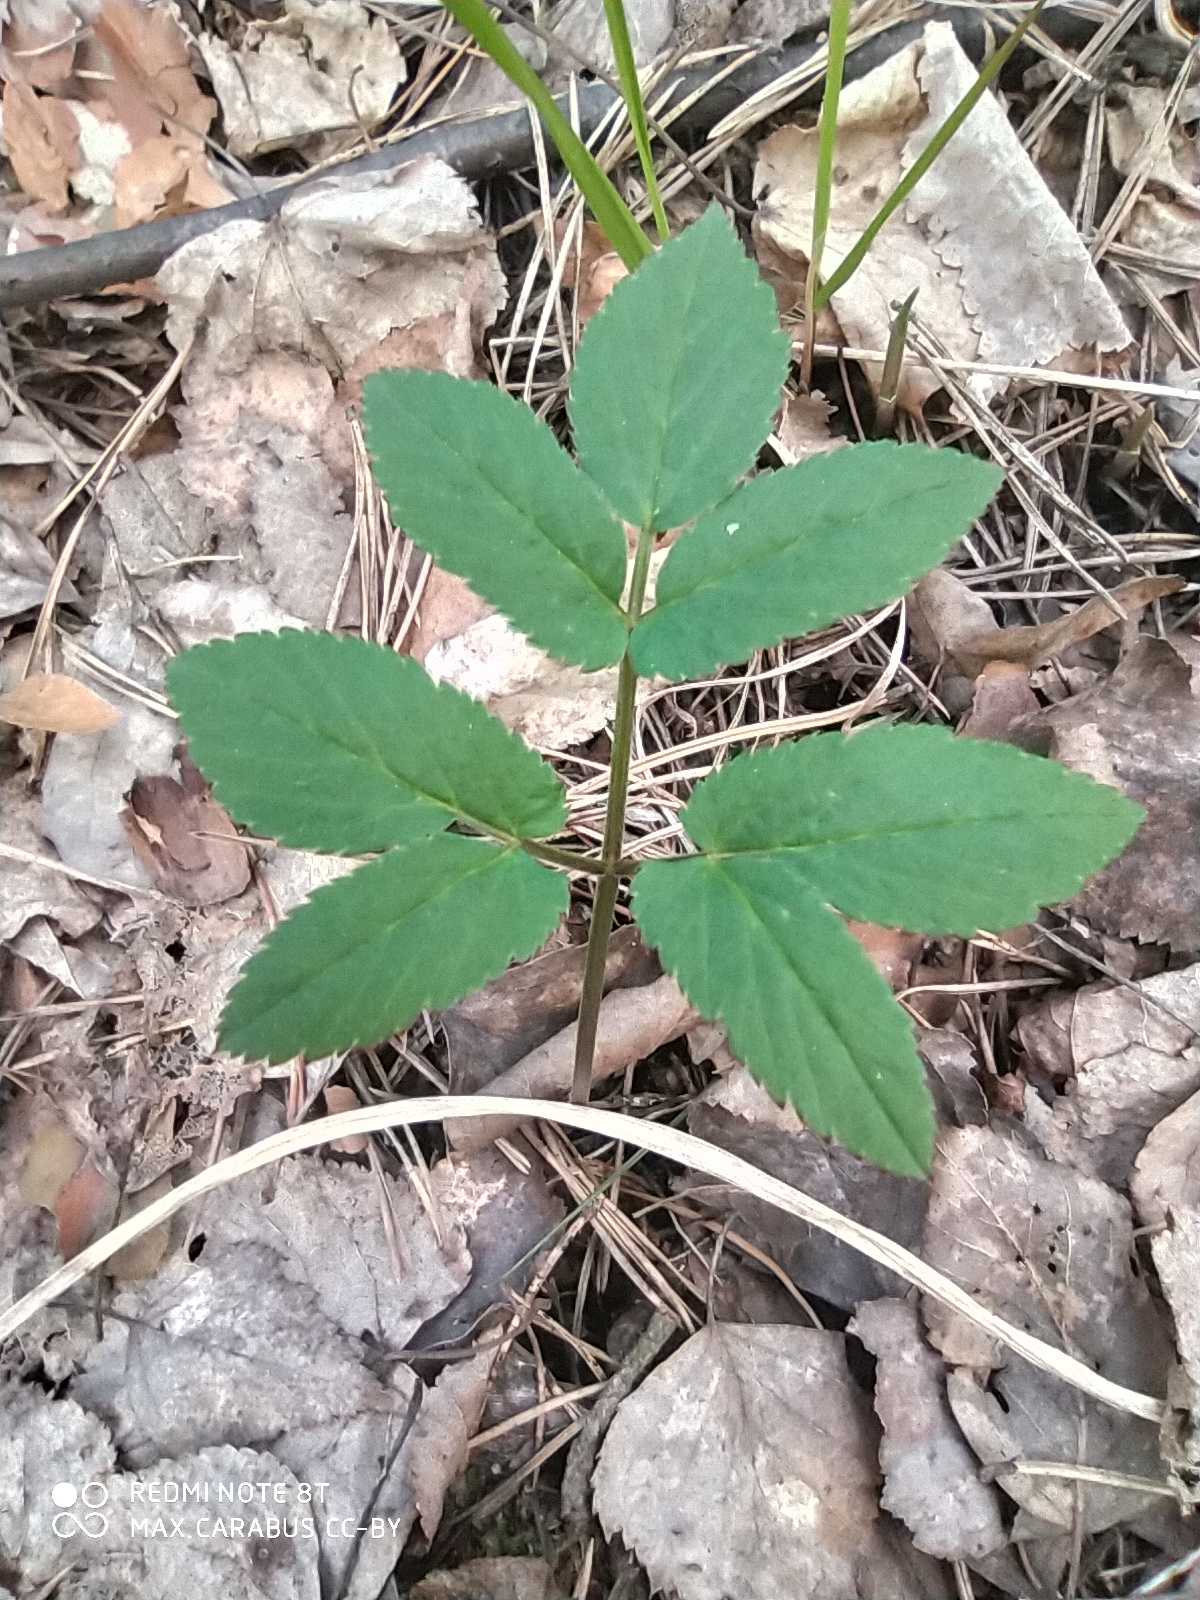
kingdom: Plantae
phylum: Tracheophyta
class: Magnoliopsida
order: Apiales
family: Apiaceae
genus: Aegopodium
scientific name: Aegopodium podagraria
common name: Ground-elder
